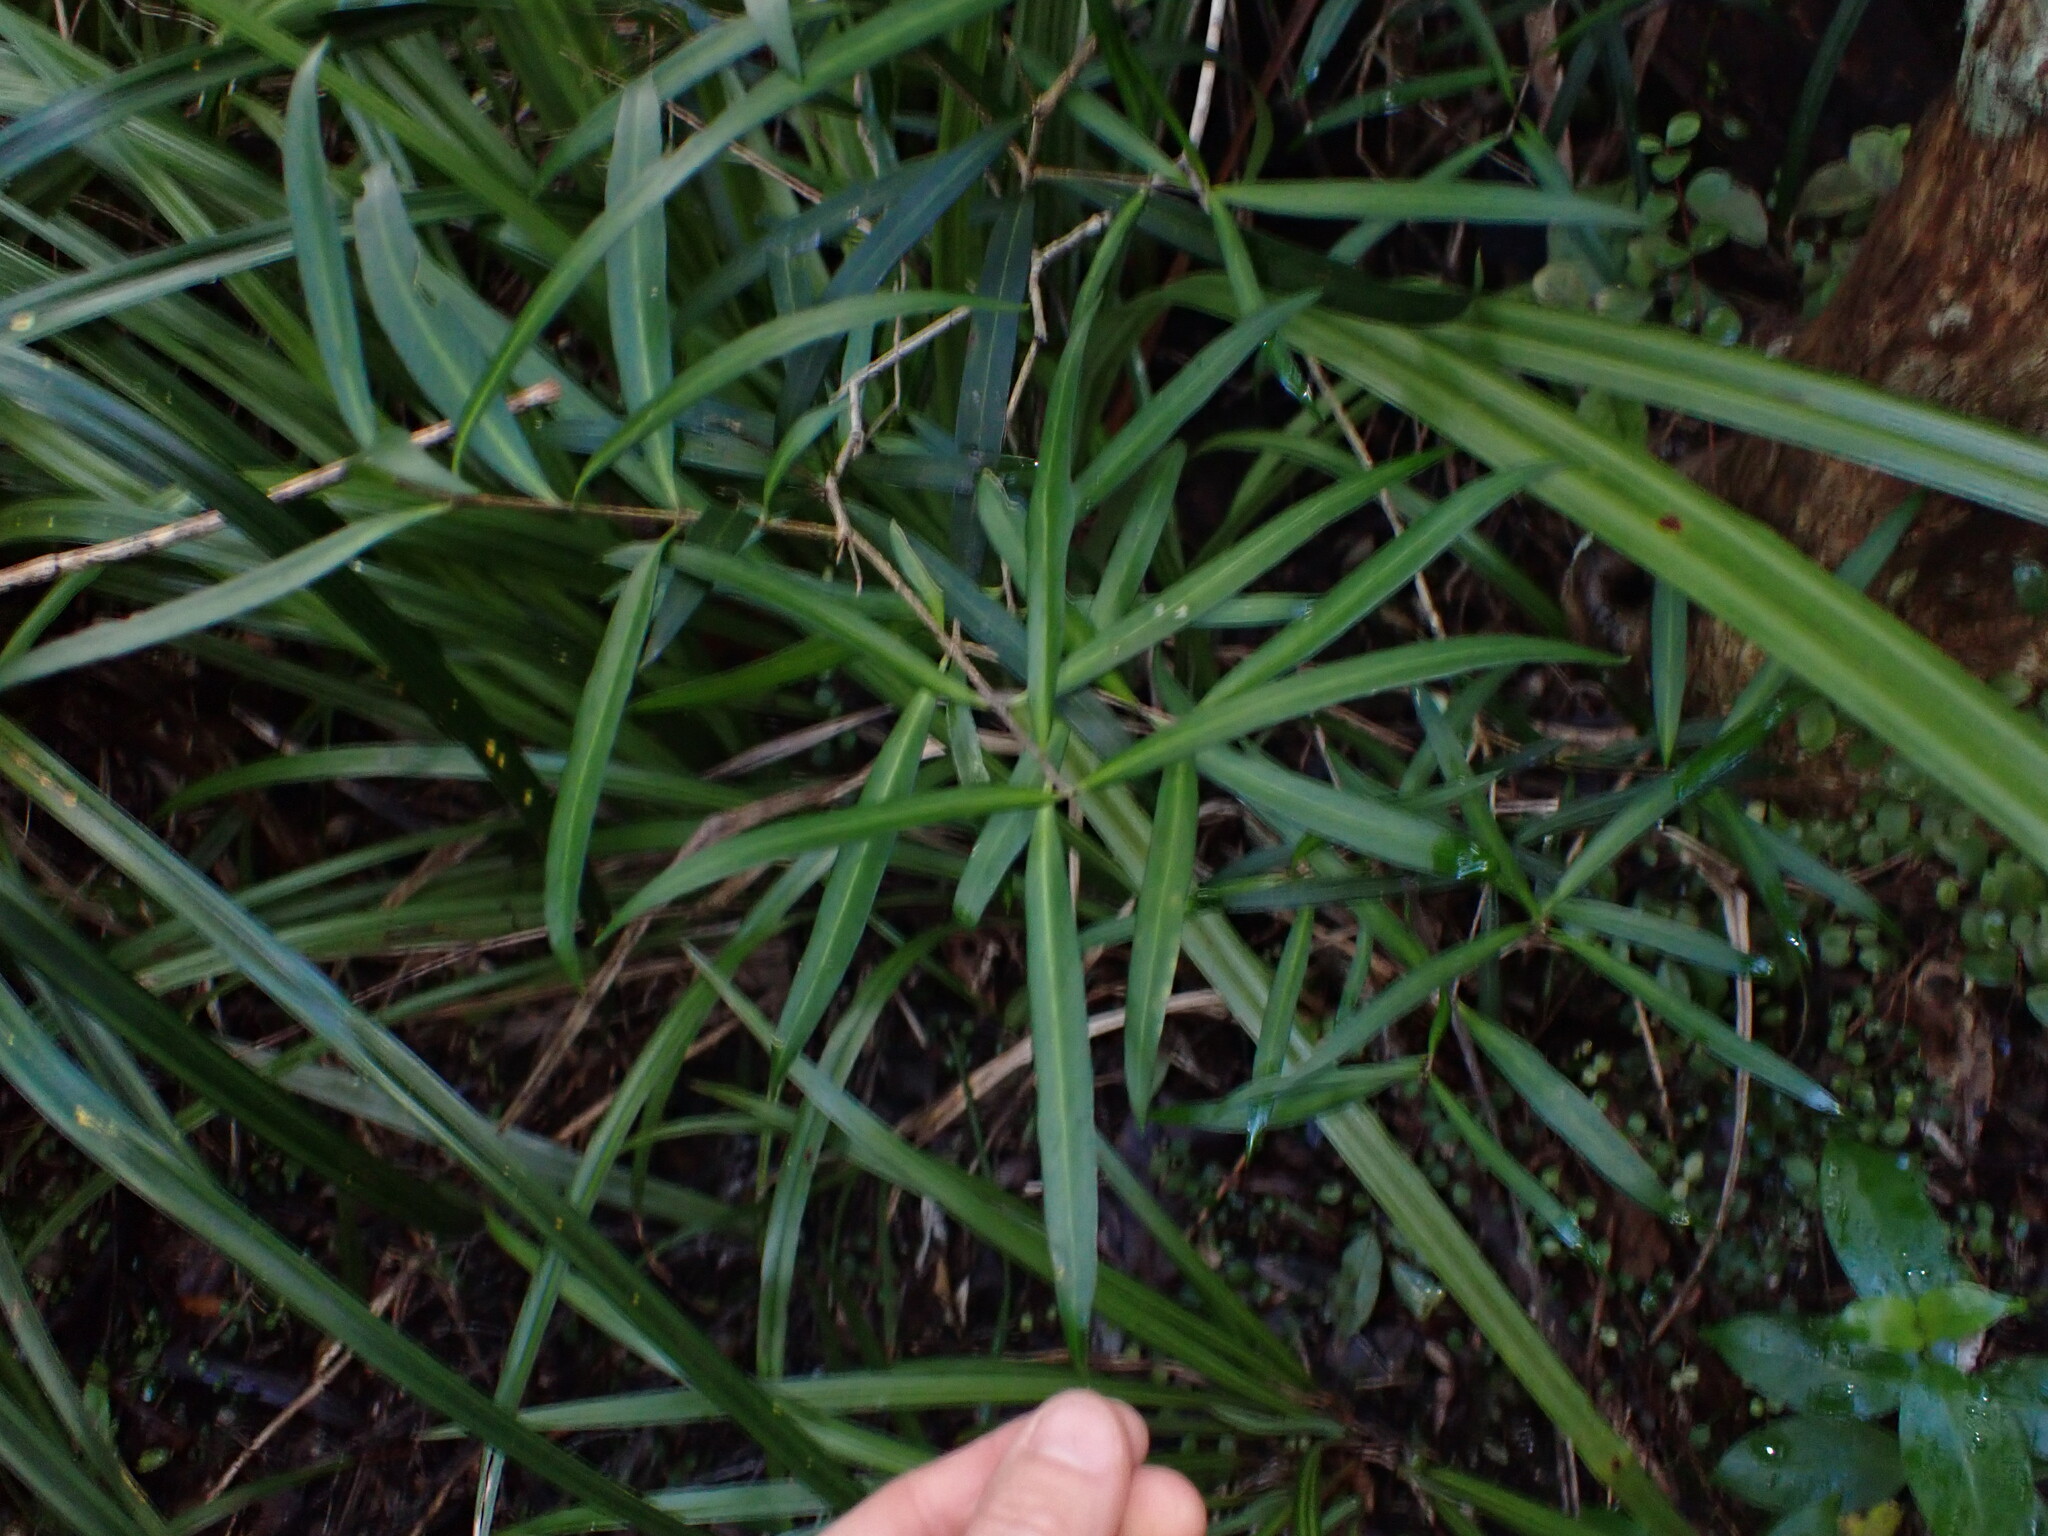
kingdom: Plantae
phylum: Tracheophyta
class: Magnoliopsida
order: Lamiales
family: Oleaceae
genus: Nestegis
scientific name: Nestegis lanceolata
